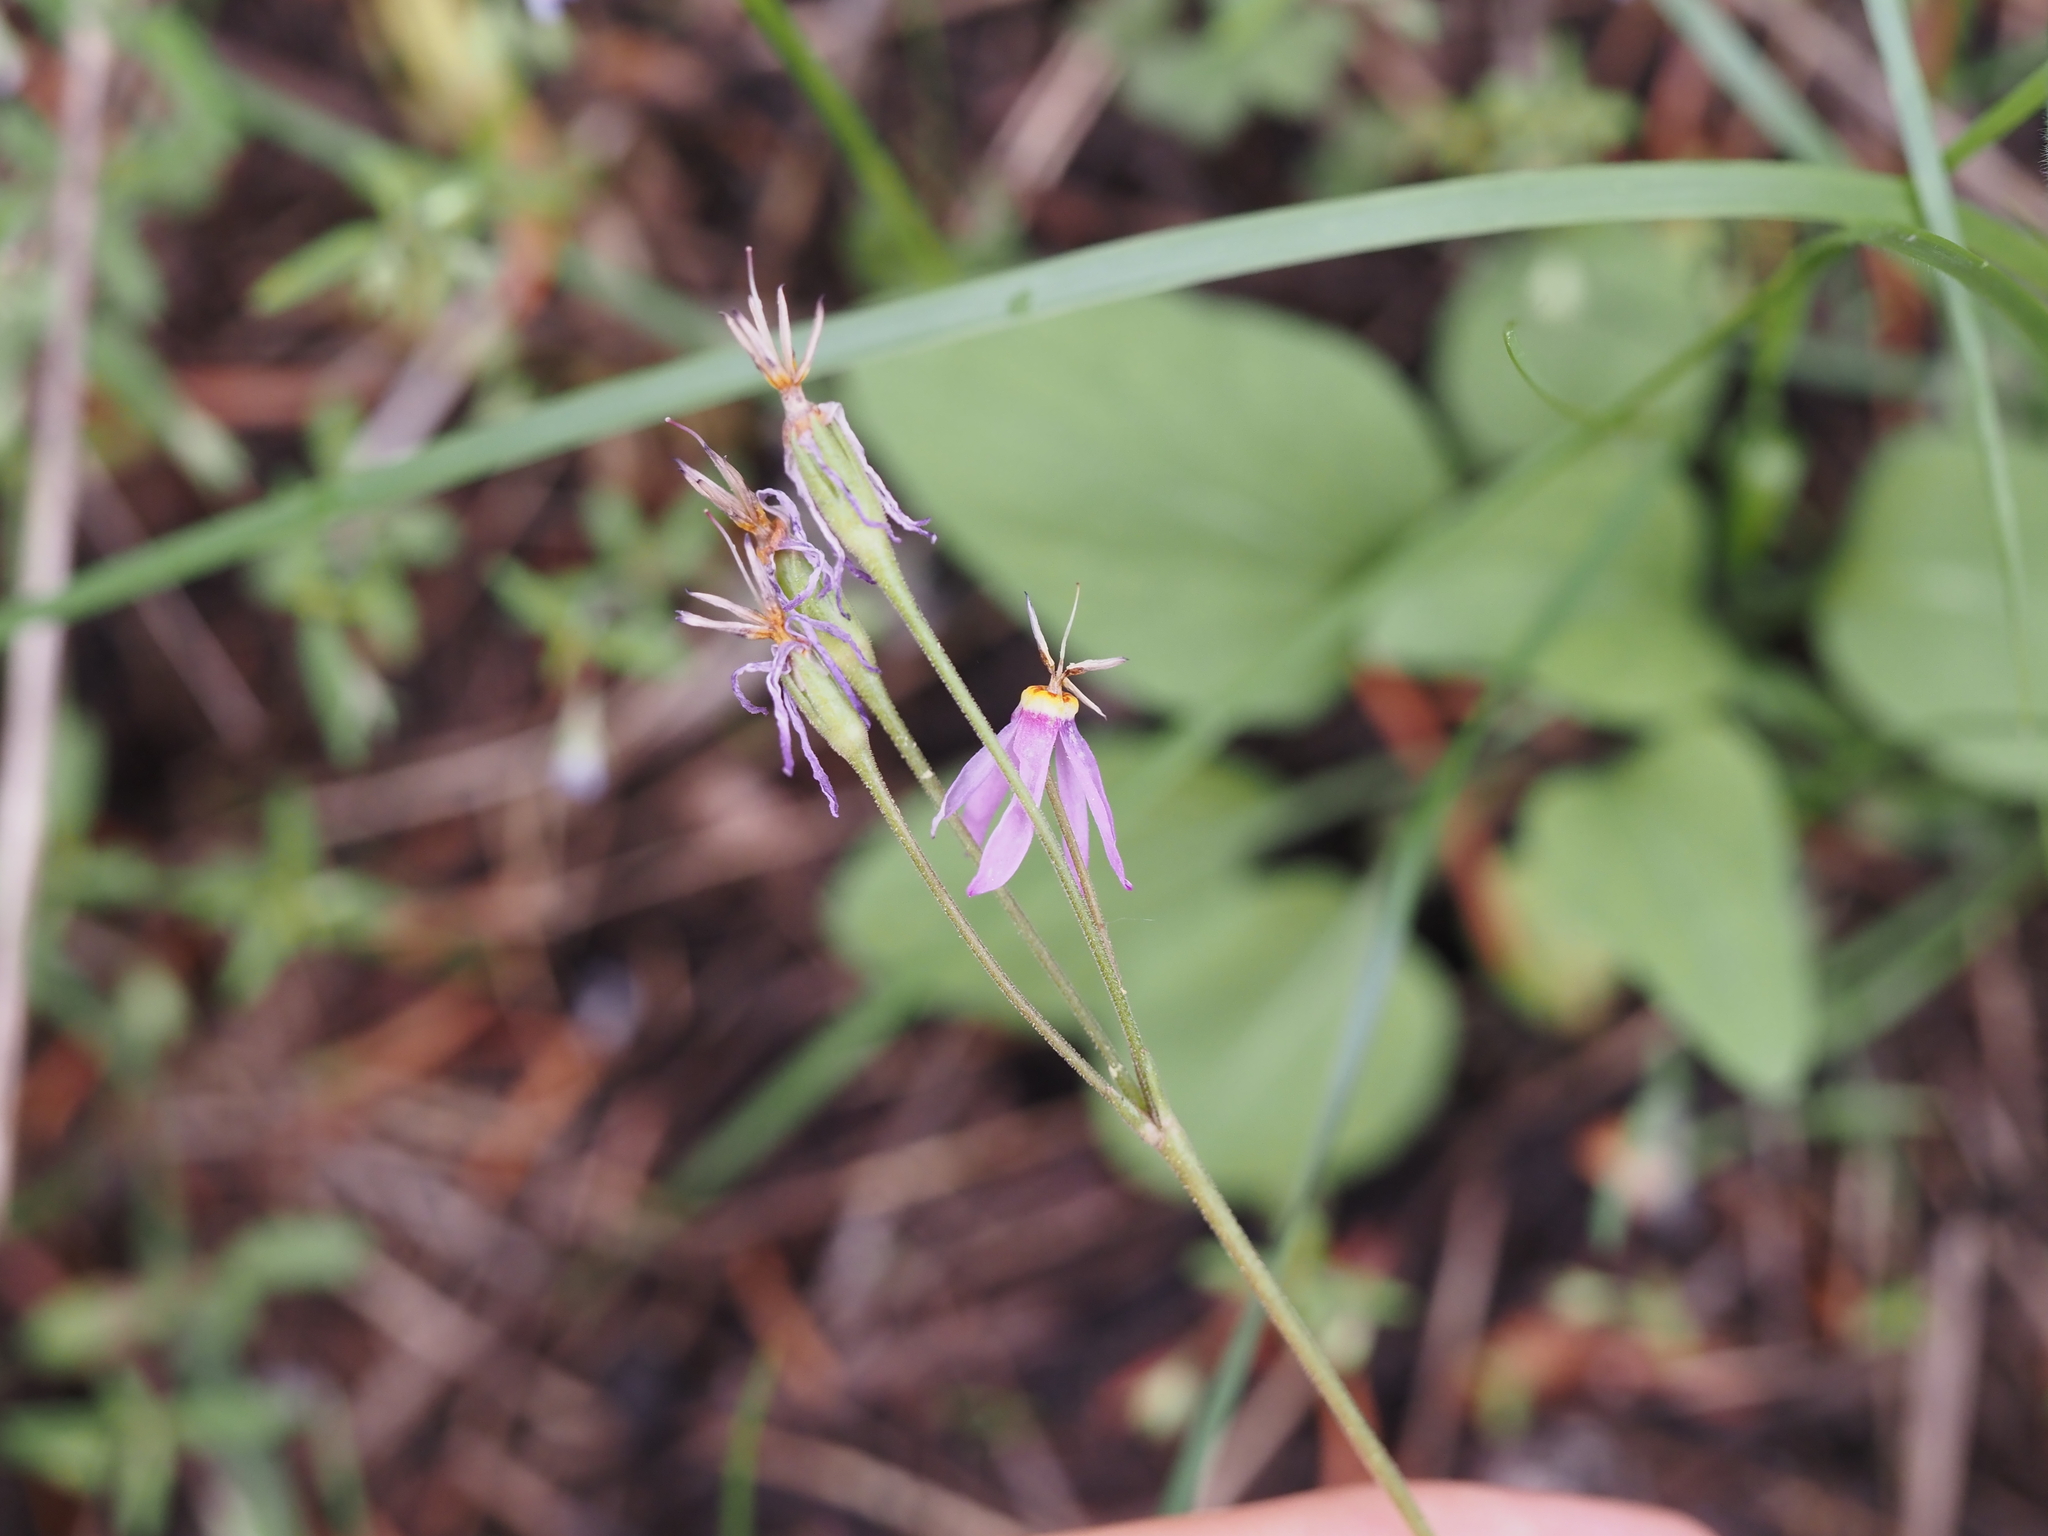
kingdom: Plantae
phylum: Tracheophyta
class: Magnoliopsida
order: Ericales
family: Primulaceae
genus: Dodecatheon
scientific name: Dodecatheon pulchellum
